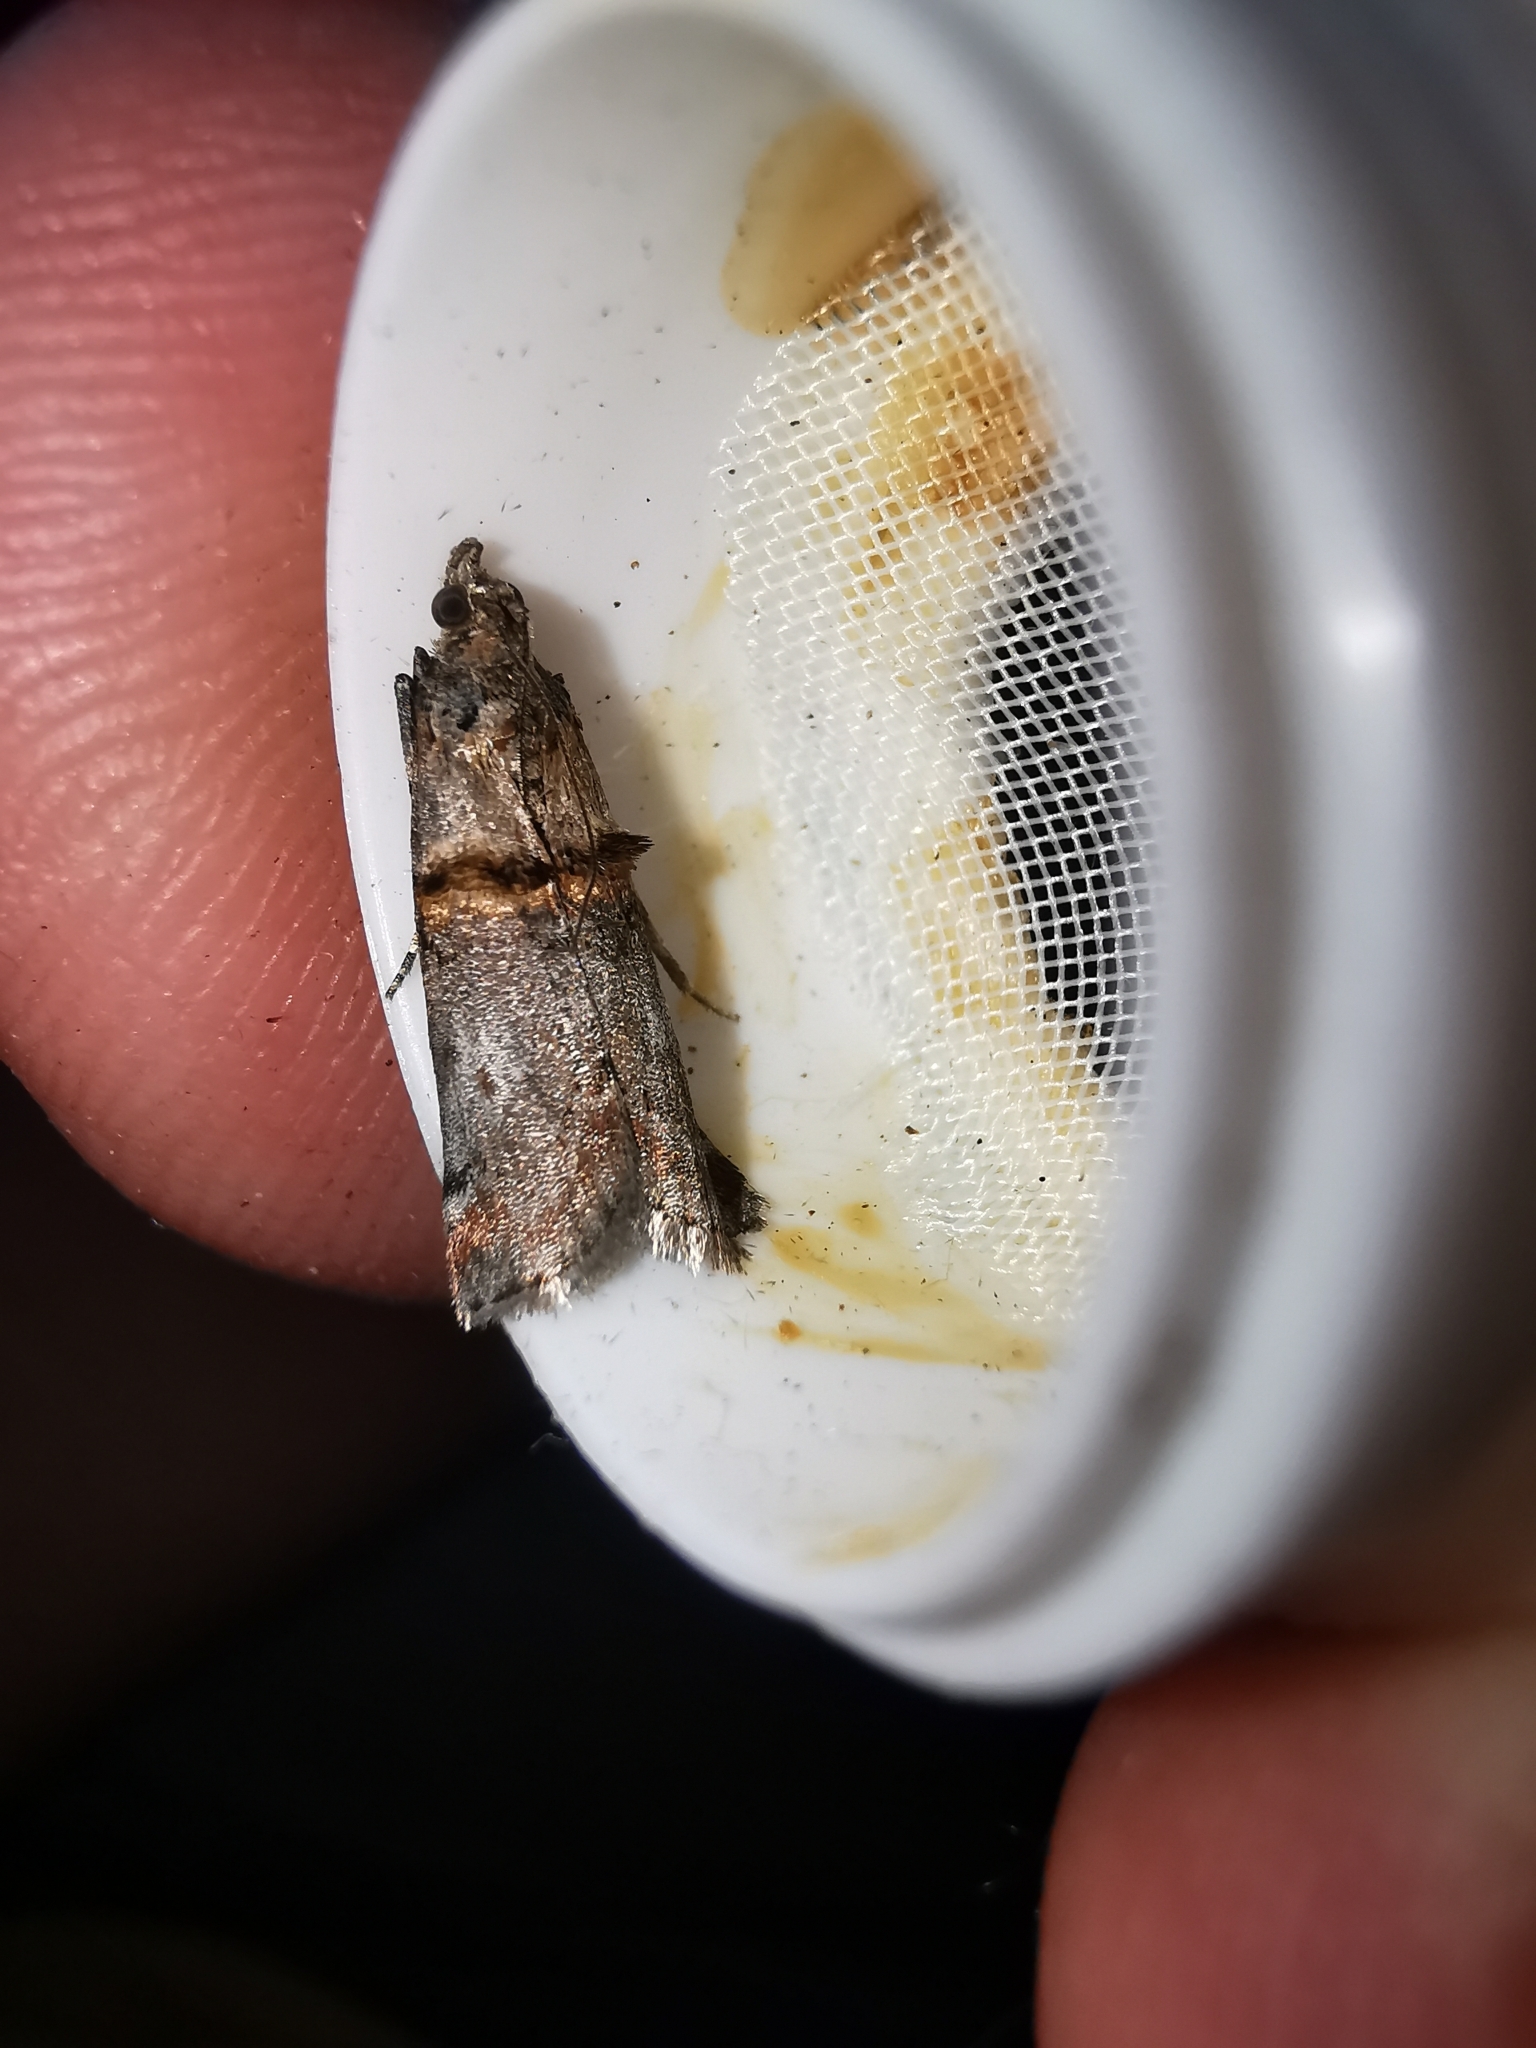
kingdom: Animalia
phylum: Arthropoda
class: Insecta
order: Lepidoptera
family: Pyralidae
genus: Trachonitis
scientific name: Trachonitis cristella
